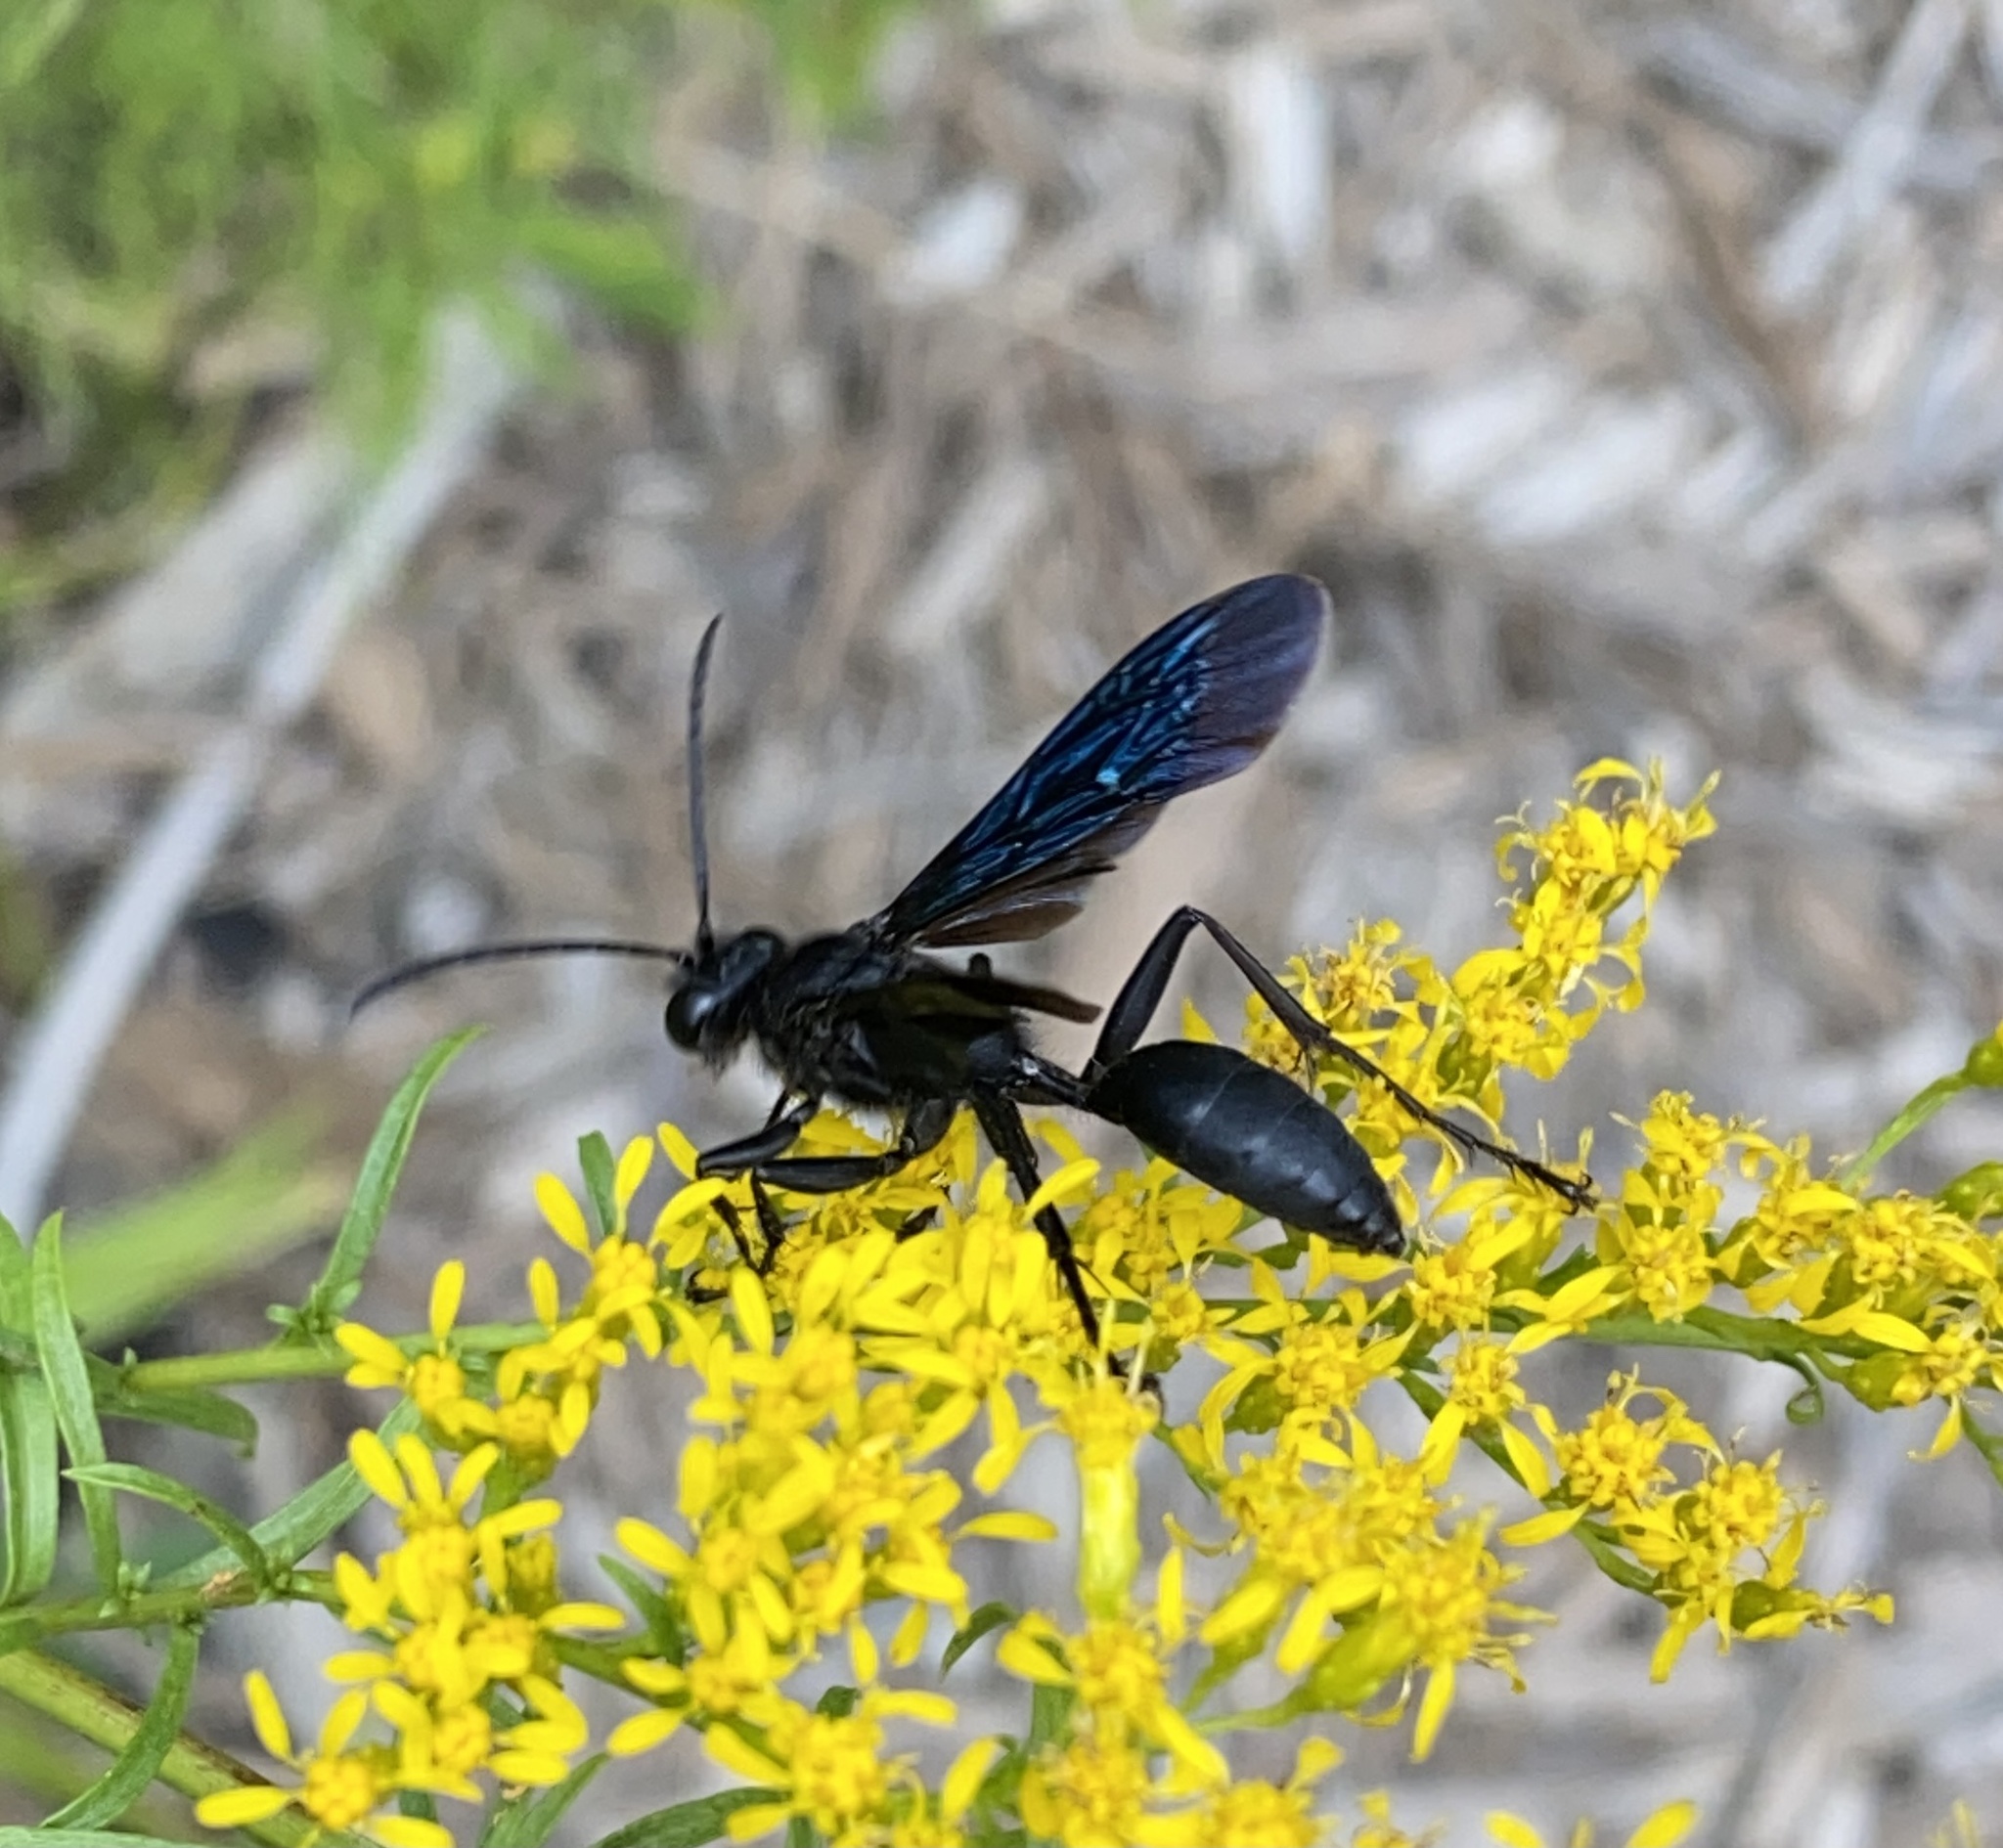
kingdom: Animalia
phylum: Arthropoda
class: Insecta
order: Hymenoptera
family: Sphecidae
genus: Sphex
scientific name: Sphex pensylvanicus
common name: Great black digger wasp
